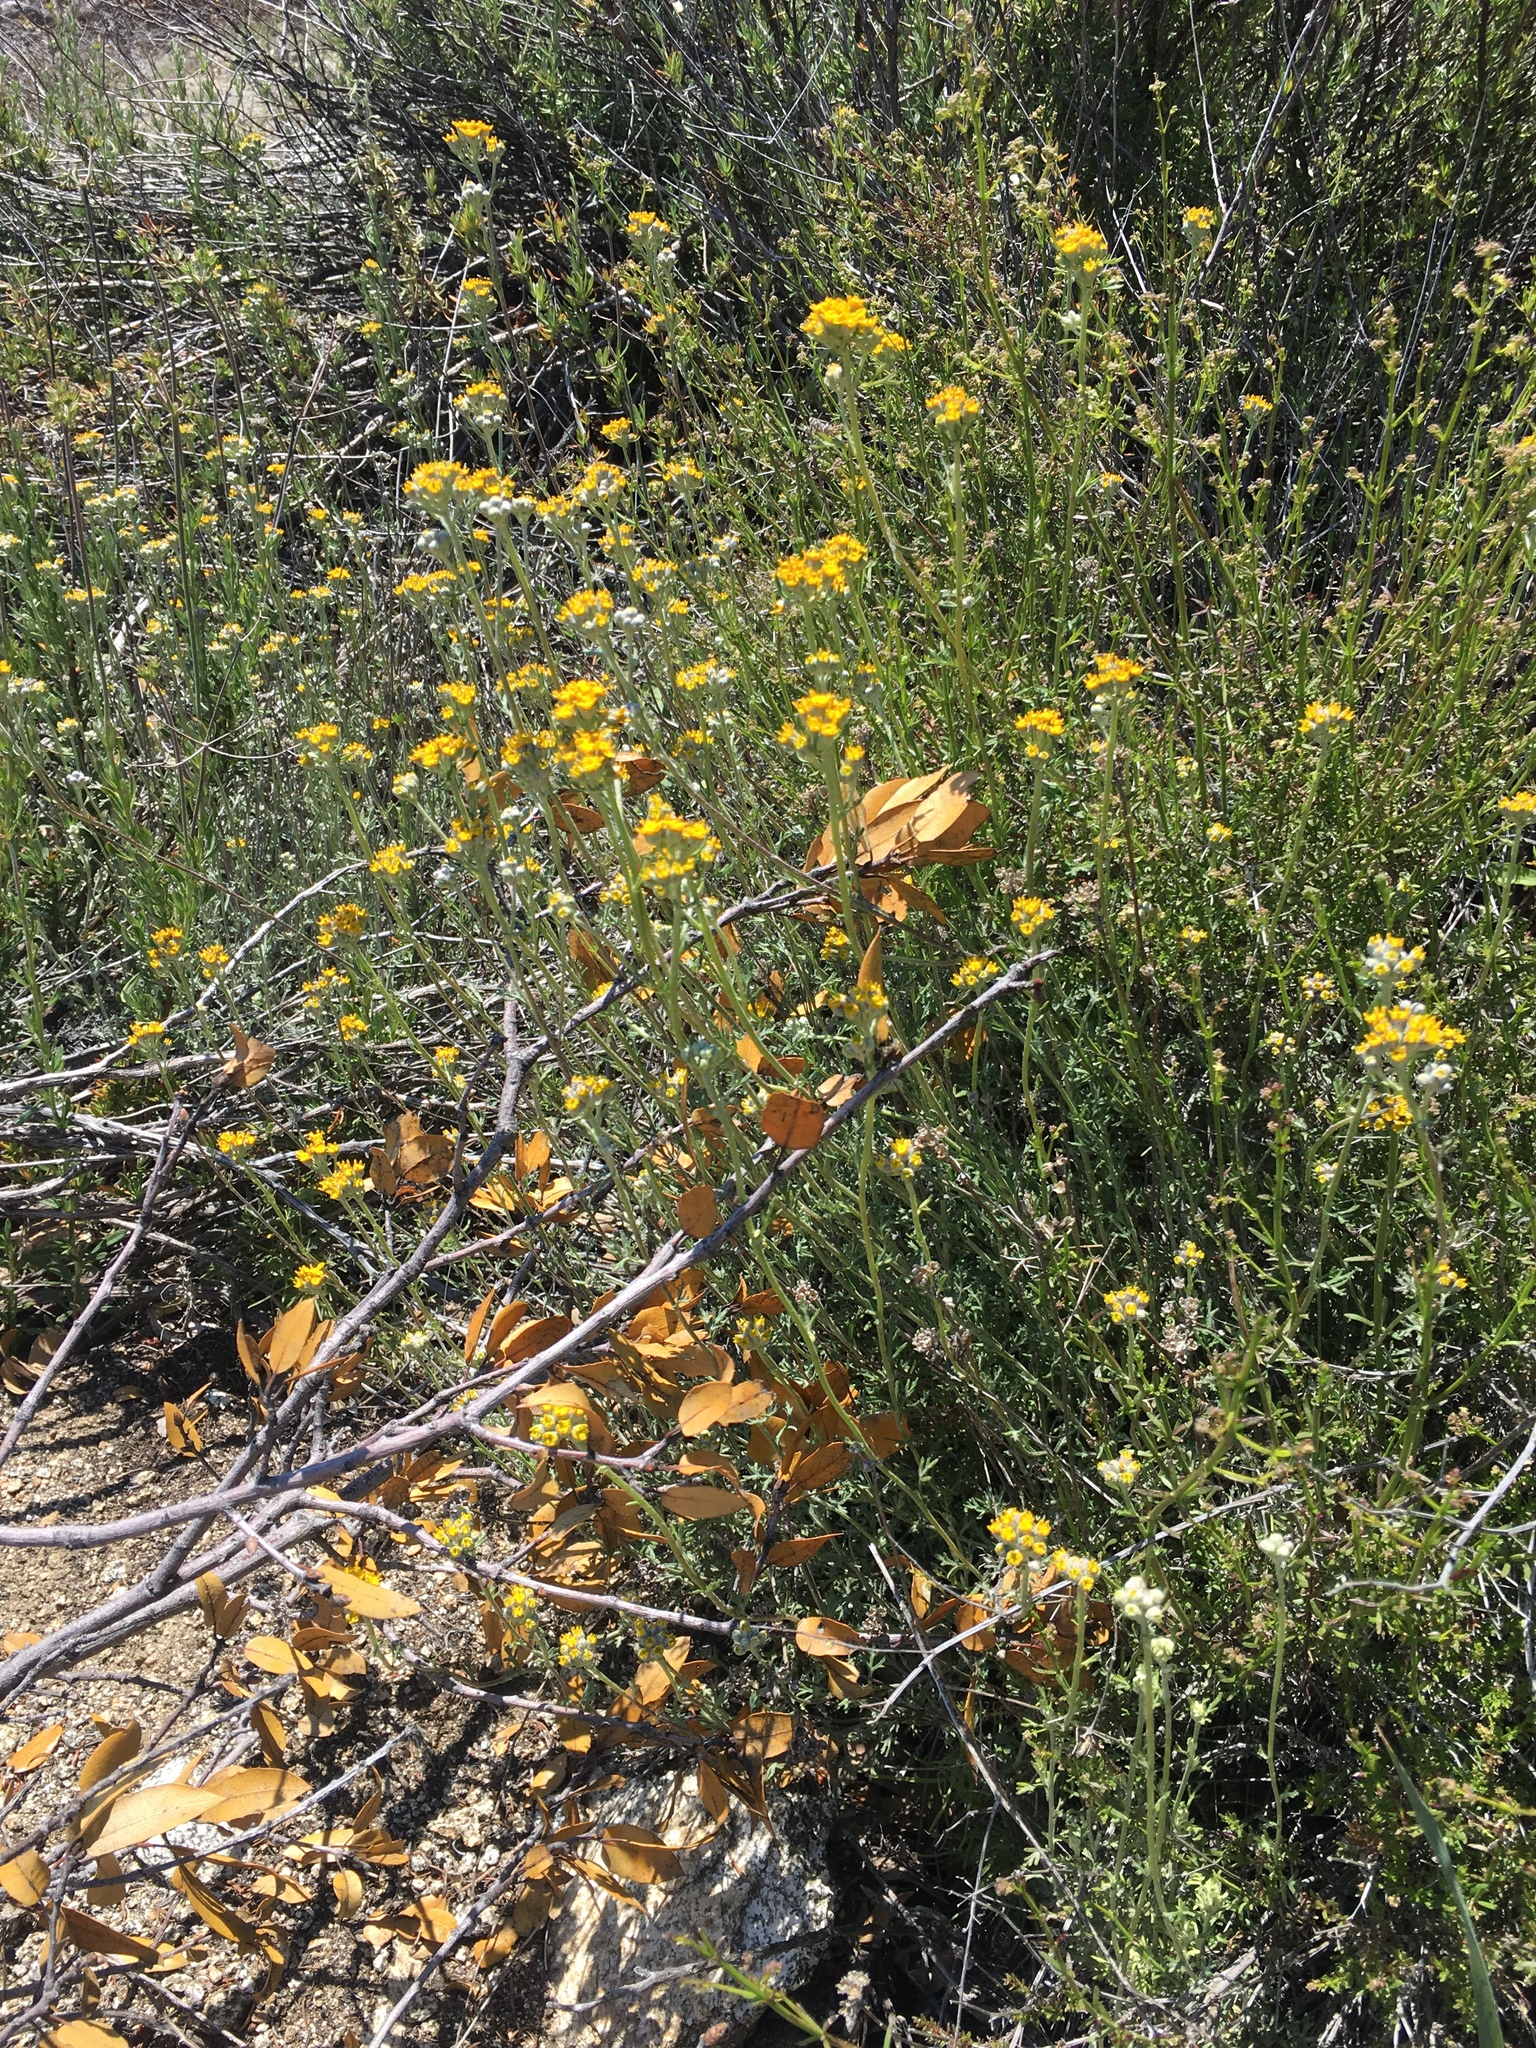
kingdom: Plantae
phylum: Tracheophyta
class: Magnoliopsida
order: Asterales
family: Asteraceae
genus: Eriophyllum
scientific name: Eriophyllum confertiflorum
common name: Golden-yarrow
